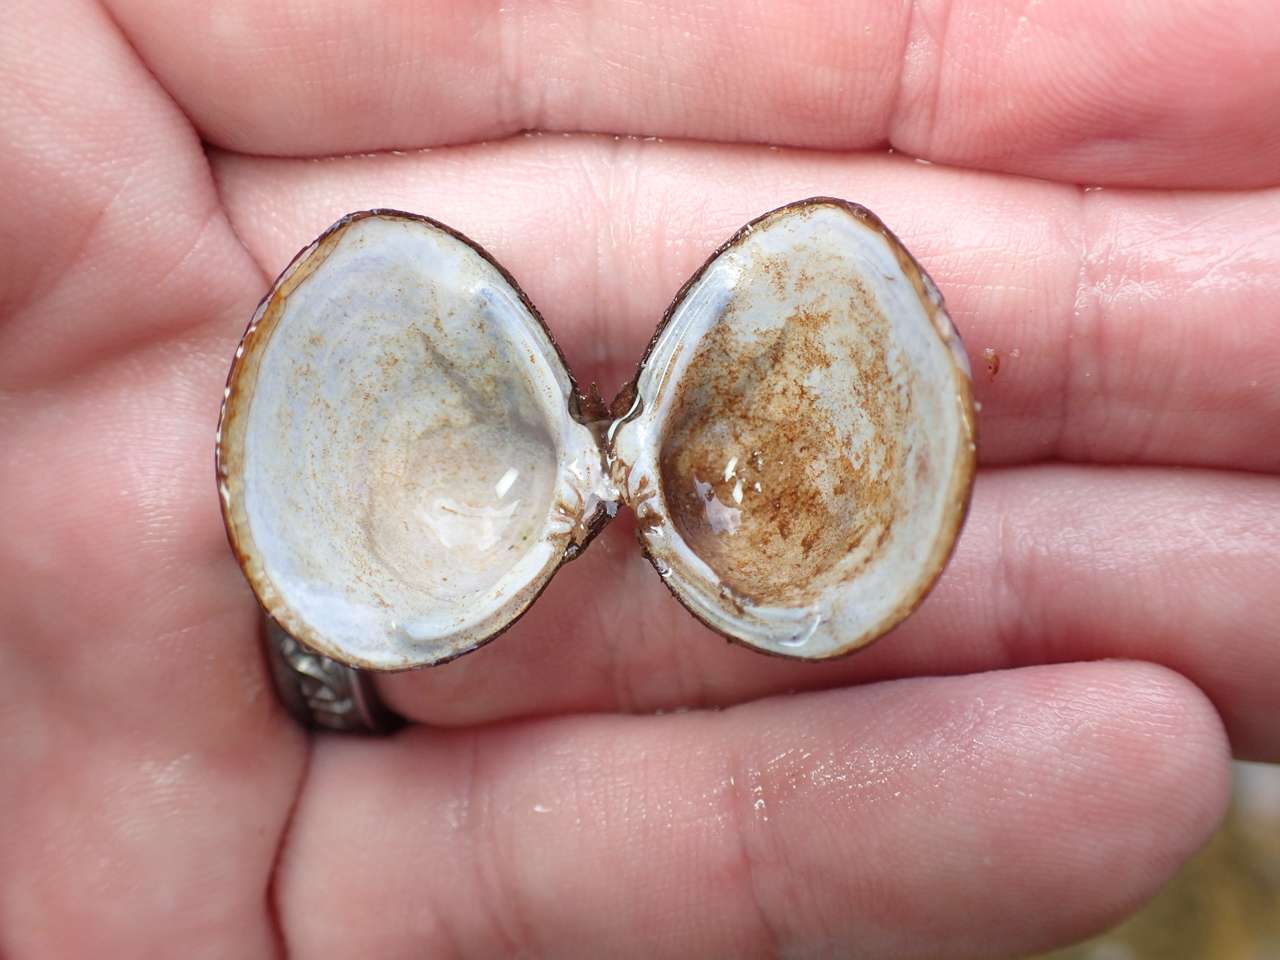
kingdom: Animalia
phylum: Mollusca
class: Bivalvia
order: Venerida
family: Cyrenidae
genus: Corbicula
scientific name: Corbicula fluminea
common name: Asian clam
